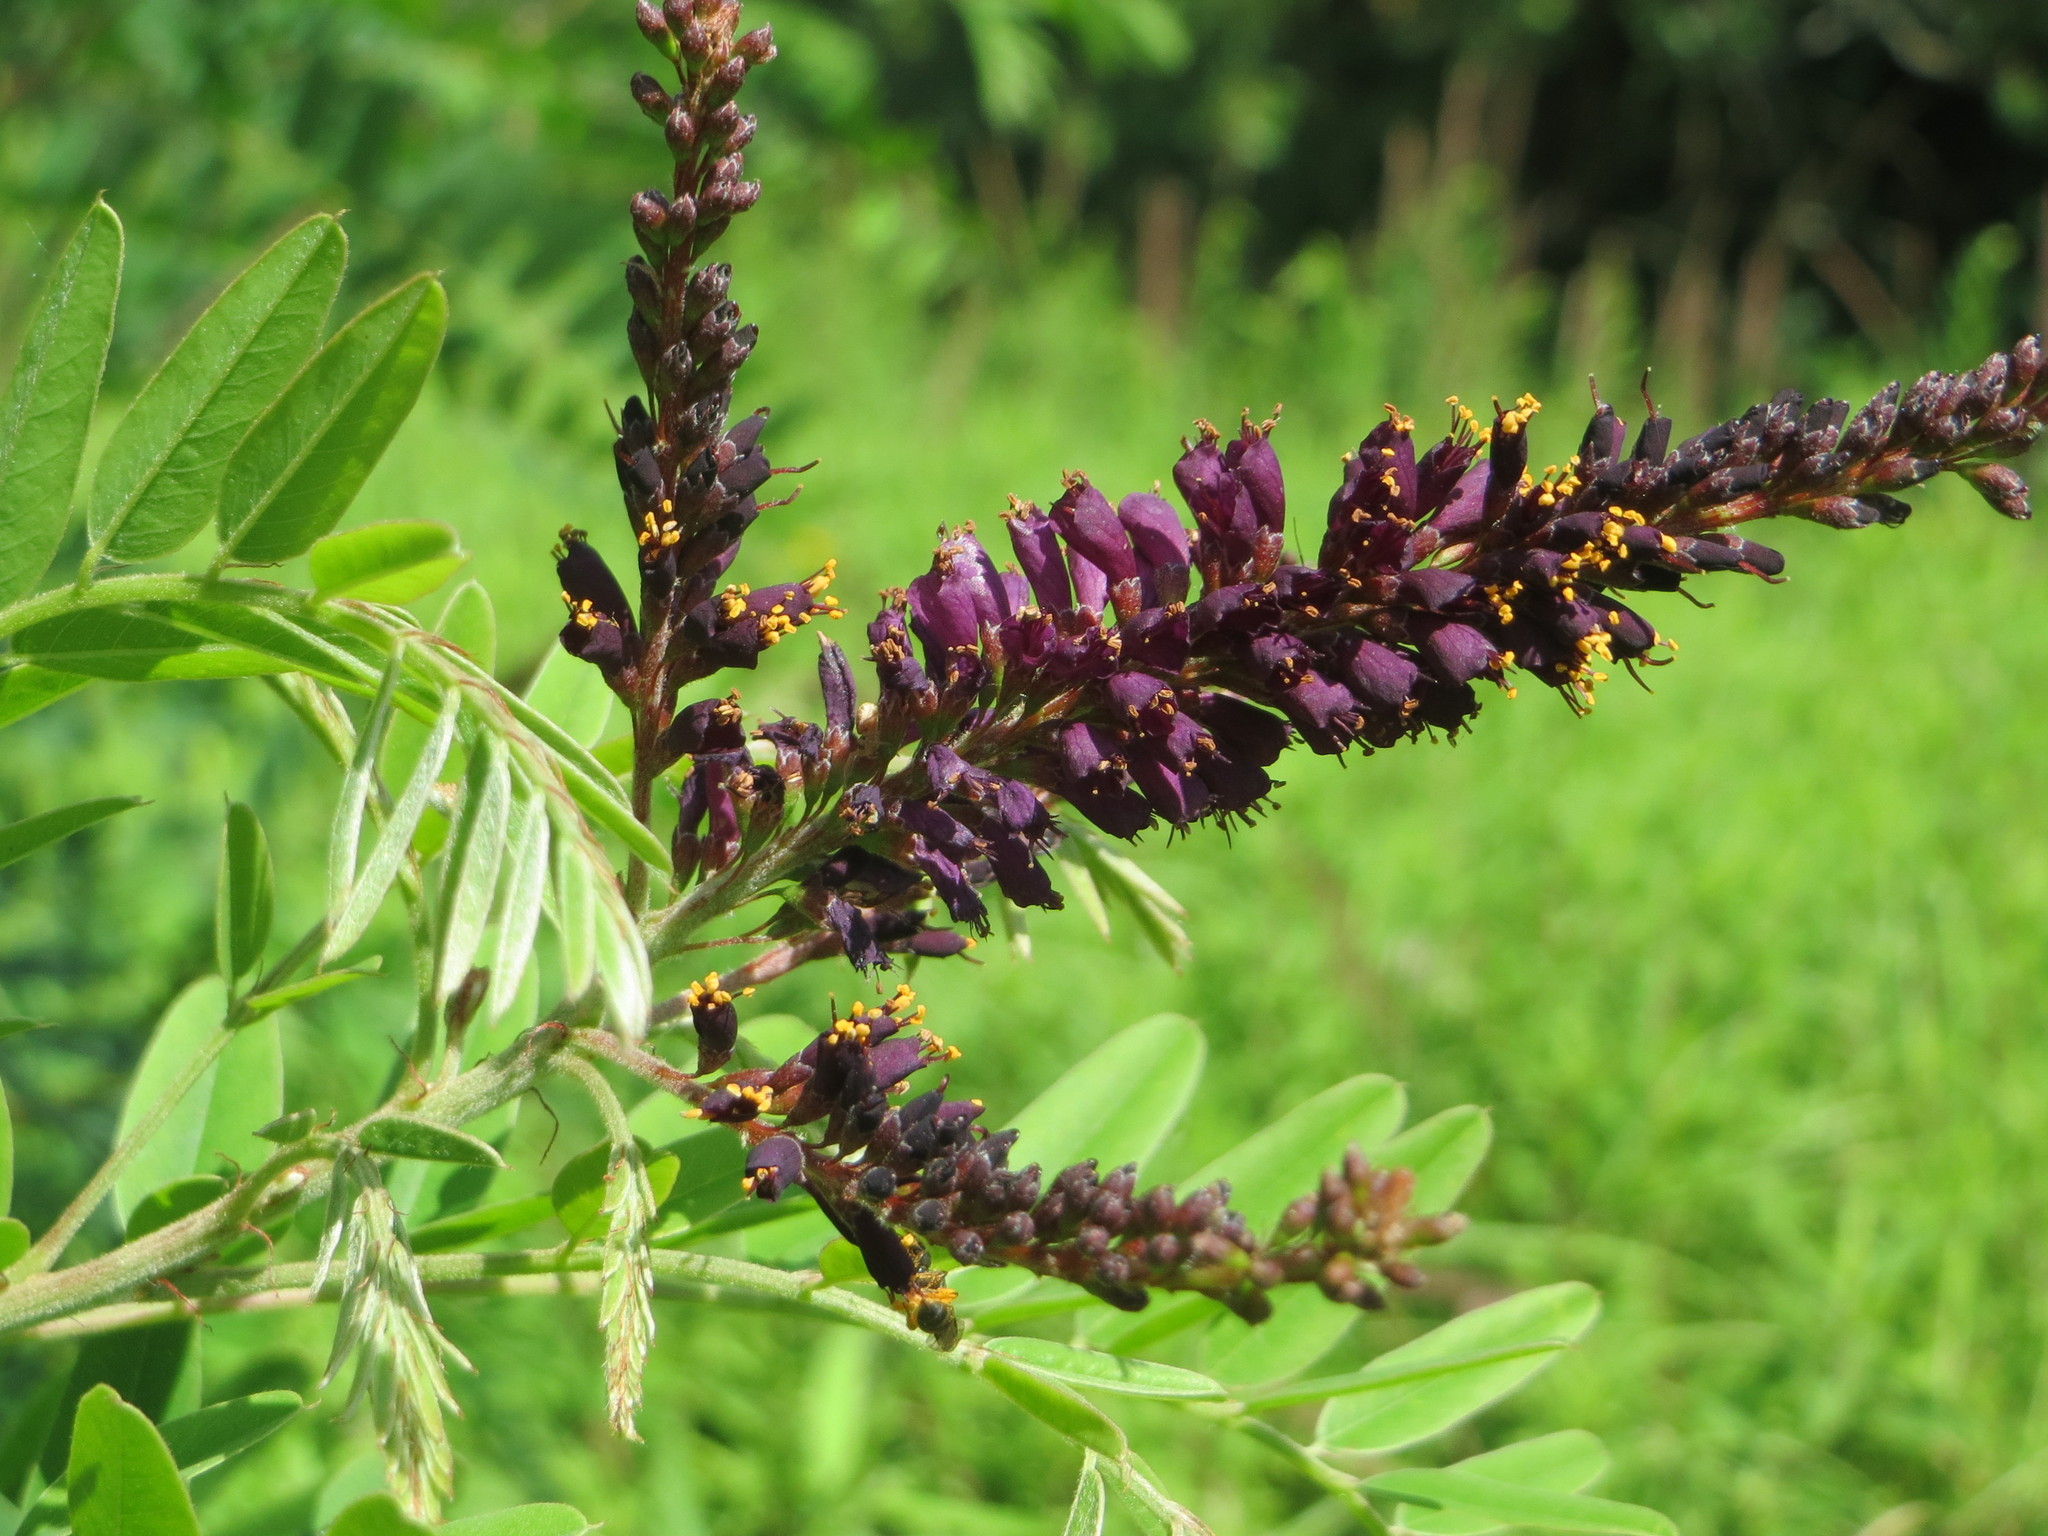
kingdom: Plantae
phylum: Tracheophyta
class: Magnoliopsida
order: Fabales
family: Fabaceae
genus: Amorpha
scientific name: Amorpha fruticosa
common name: False indigo
